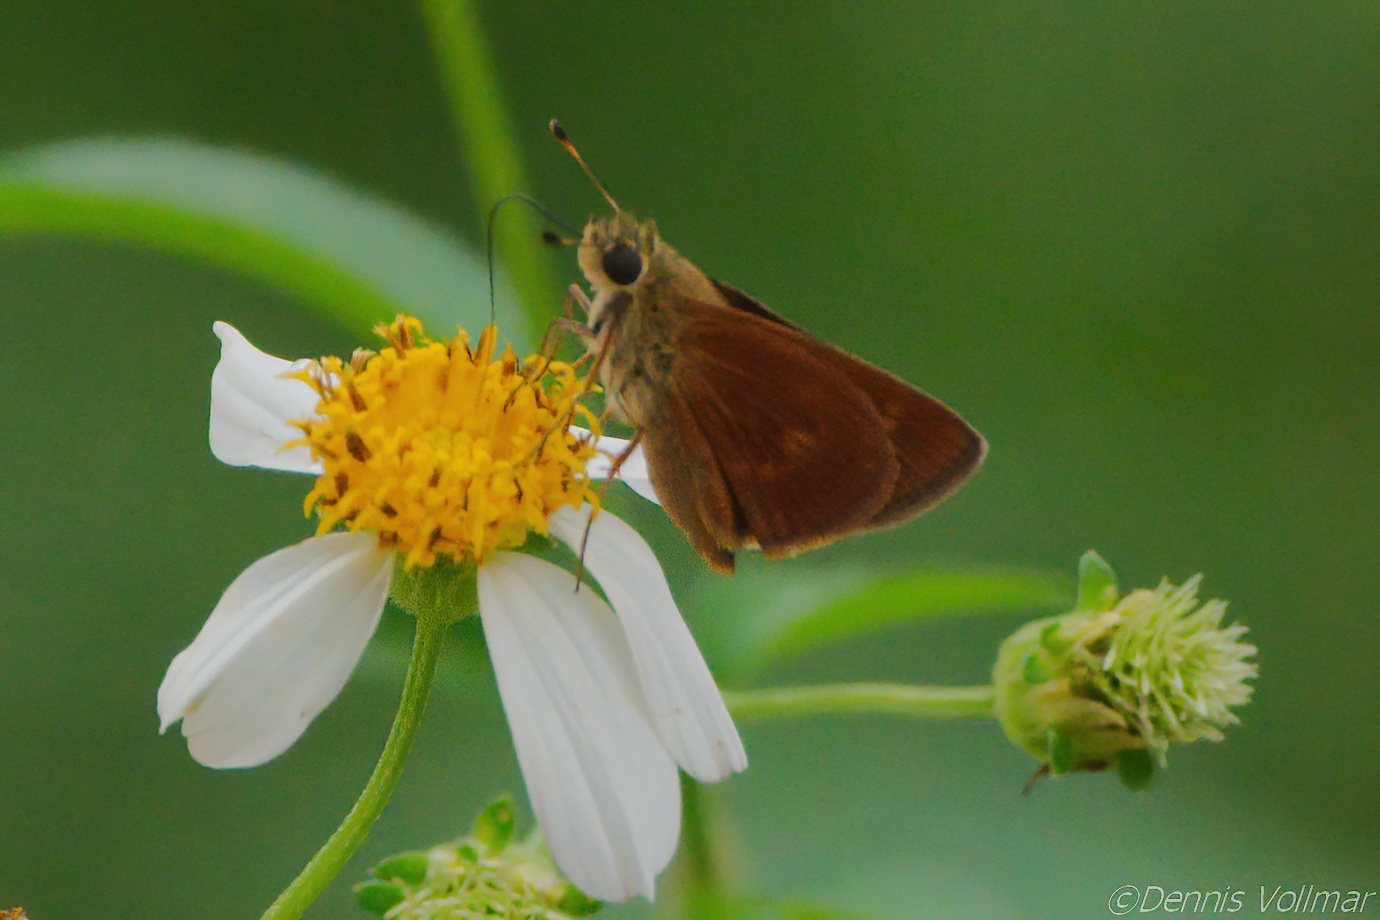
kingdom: Animalia
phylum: Arthropoda
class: Insecta
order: Lepidoptera
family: Hesperiidae
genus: Polites
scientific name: Polites otho
